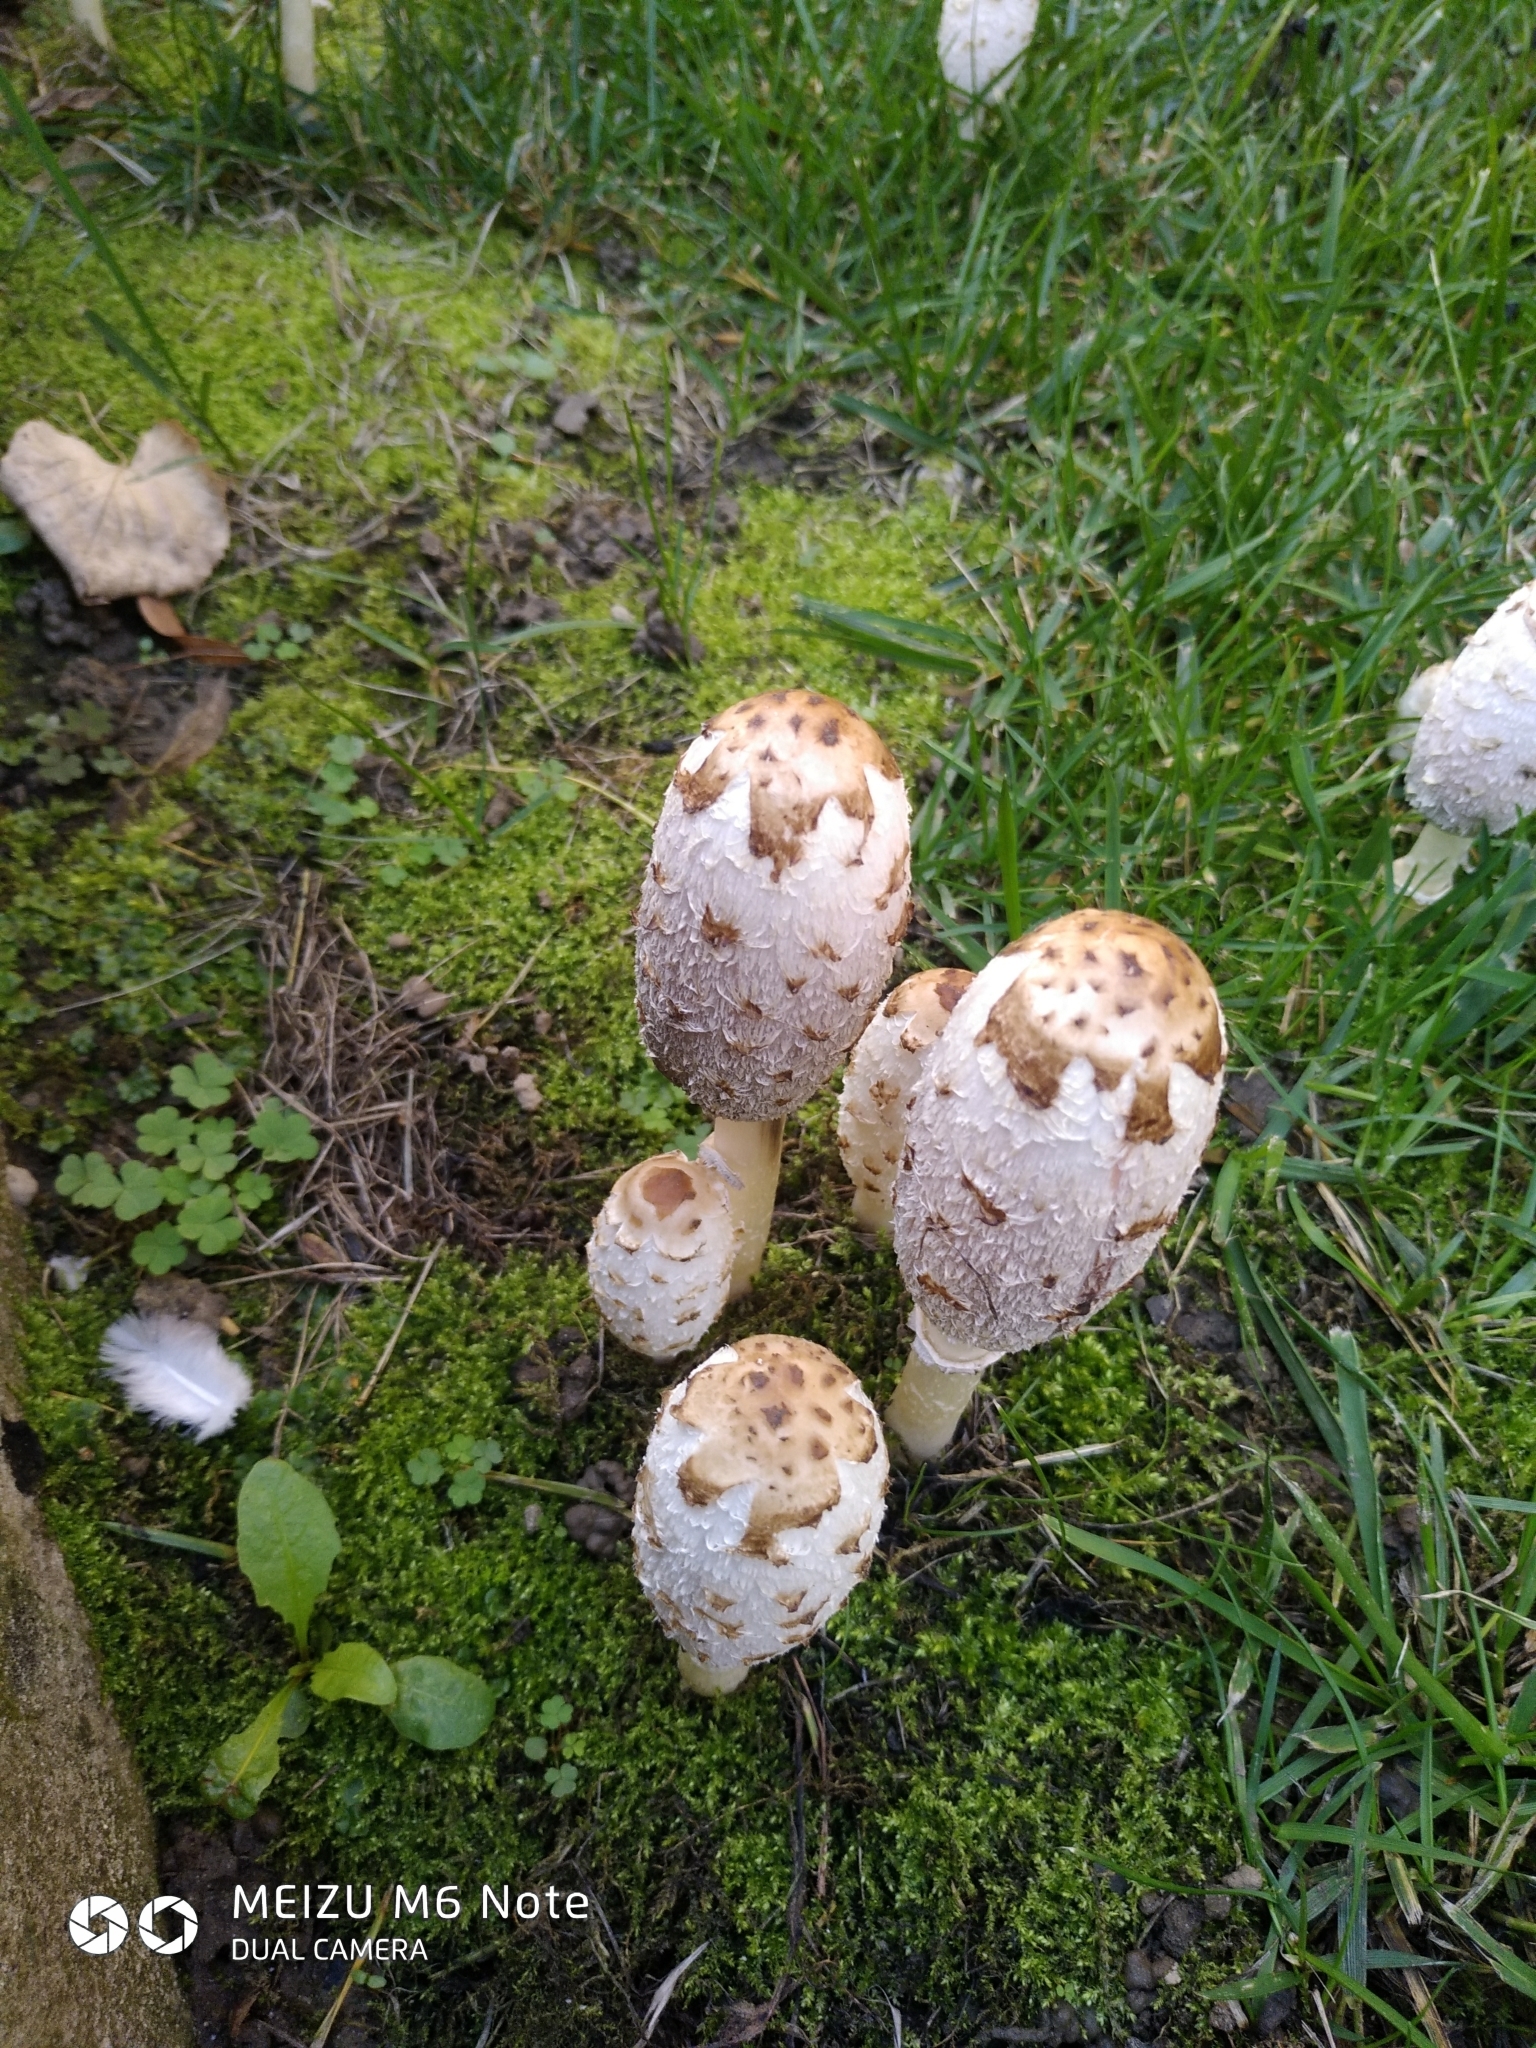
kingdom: Fungi
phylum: Basidiomycota
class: Agaricomycetes
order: Agaricales
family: Agaricaceae
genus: Coprinus
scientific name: Coprinus comatus
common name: Lawyer's wig
